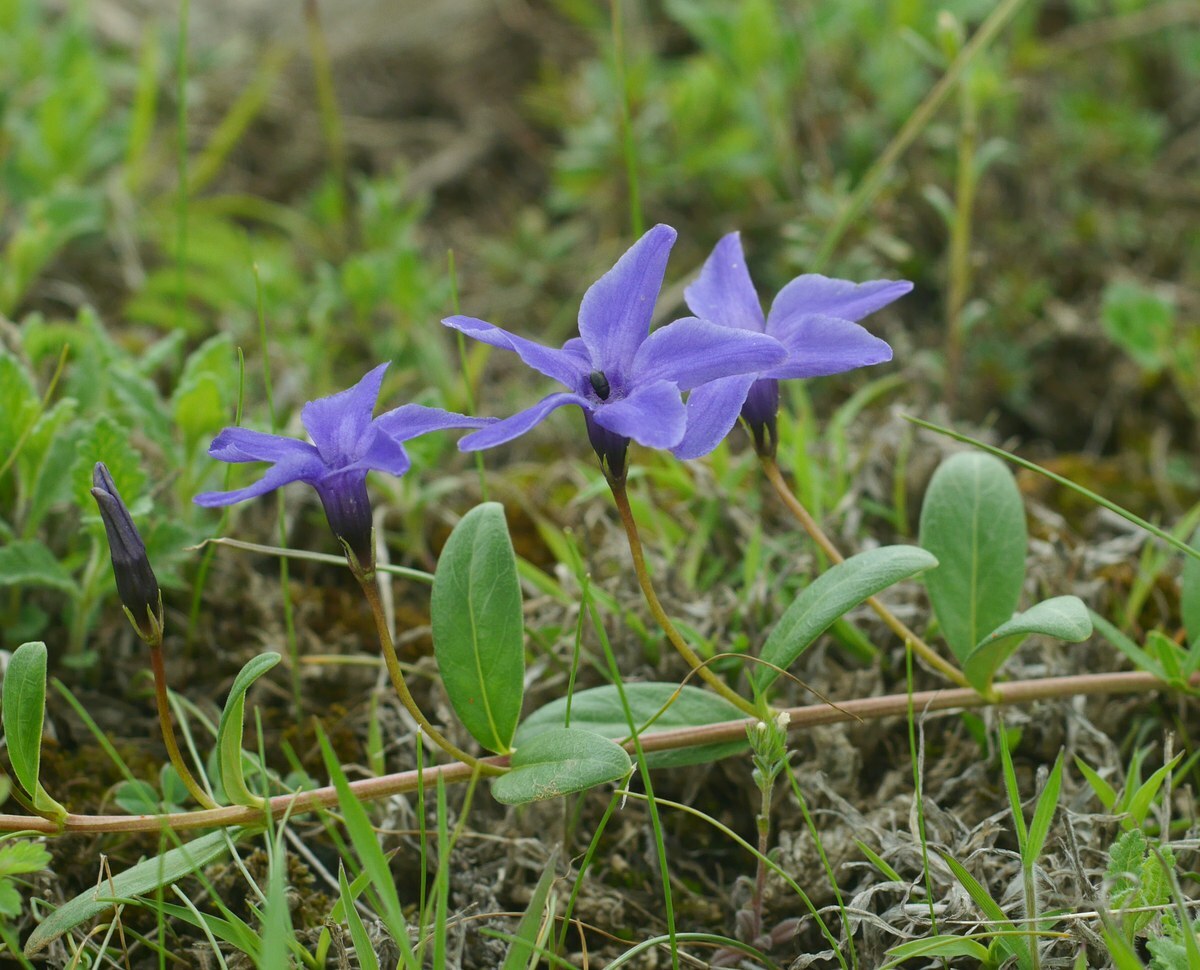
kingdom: Plantae
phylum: Tracheophyta
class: Magnoliopsida
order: Gentianales
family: Apocynaceae
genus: Vinca
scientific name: Vinca herbacea
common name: Herbaceous periwinkle
